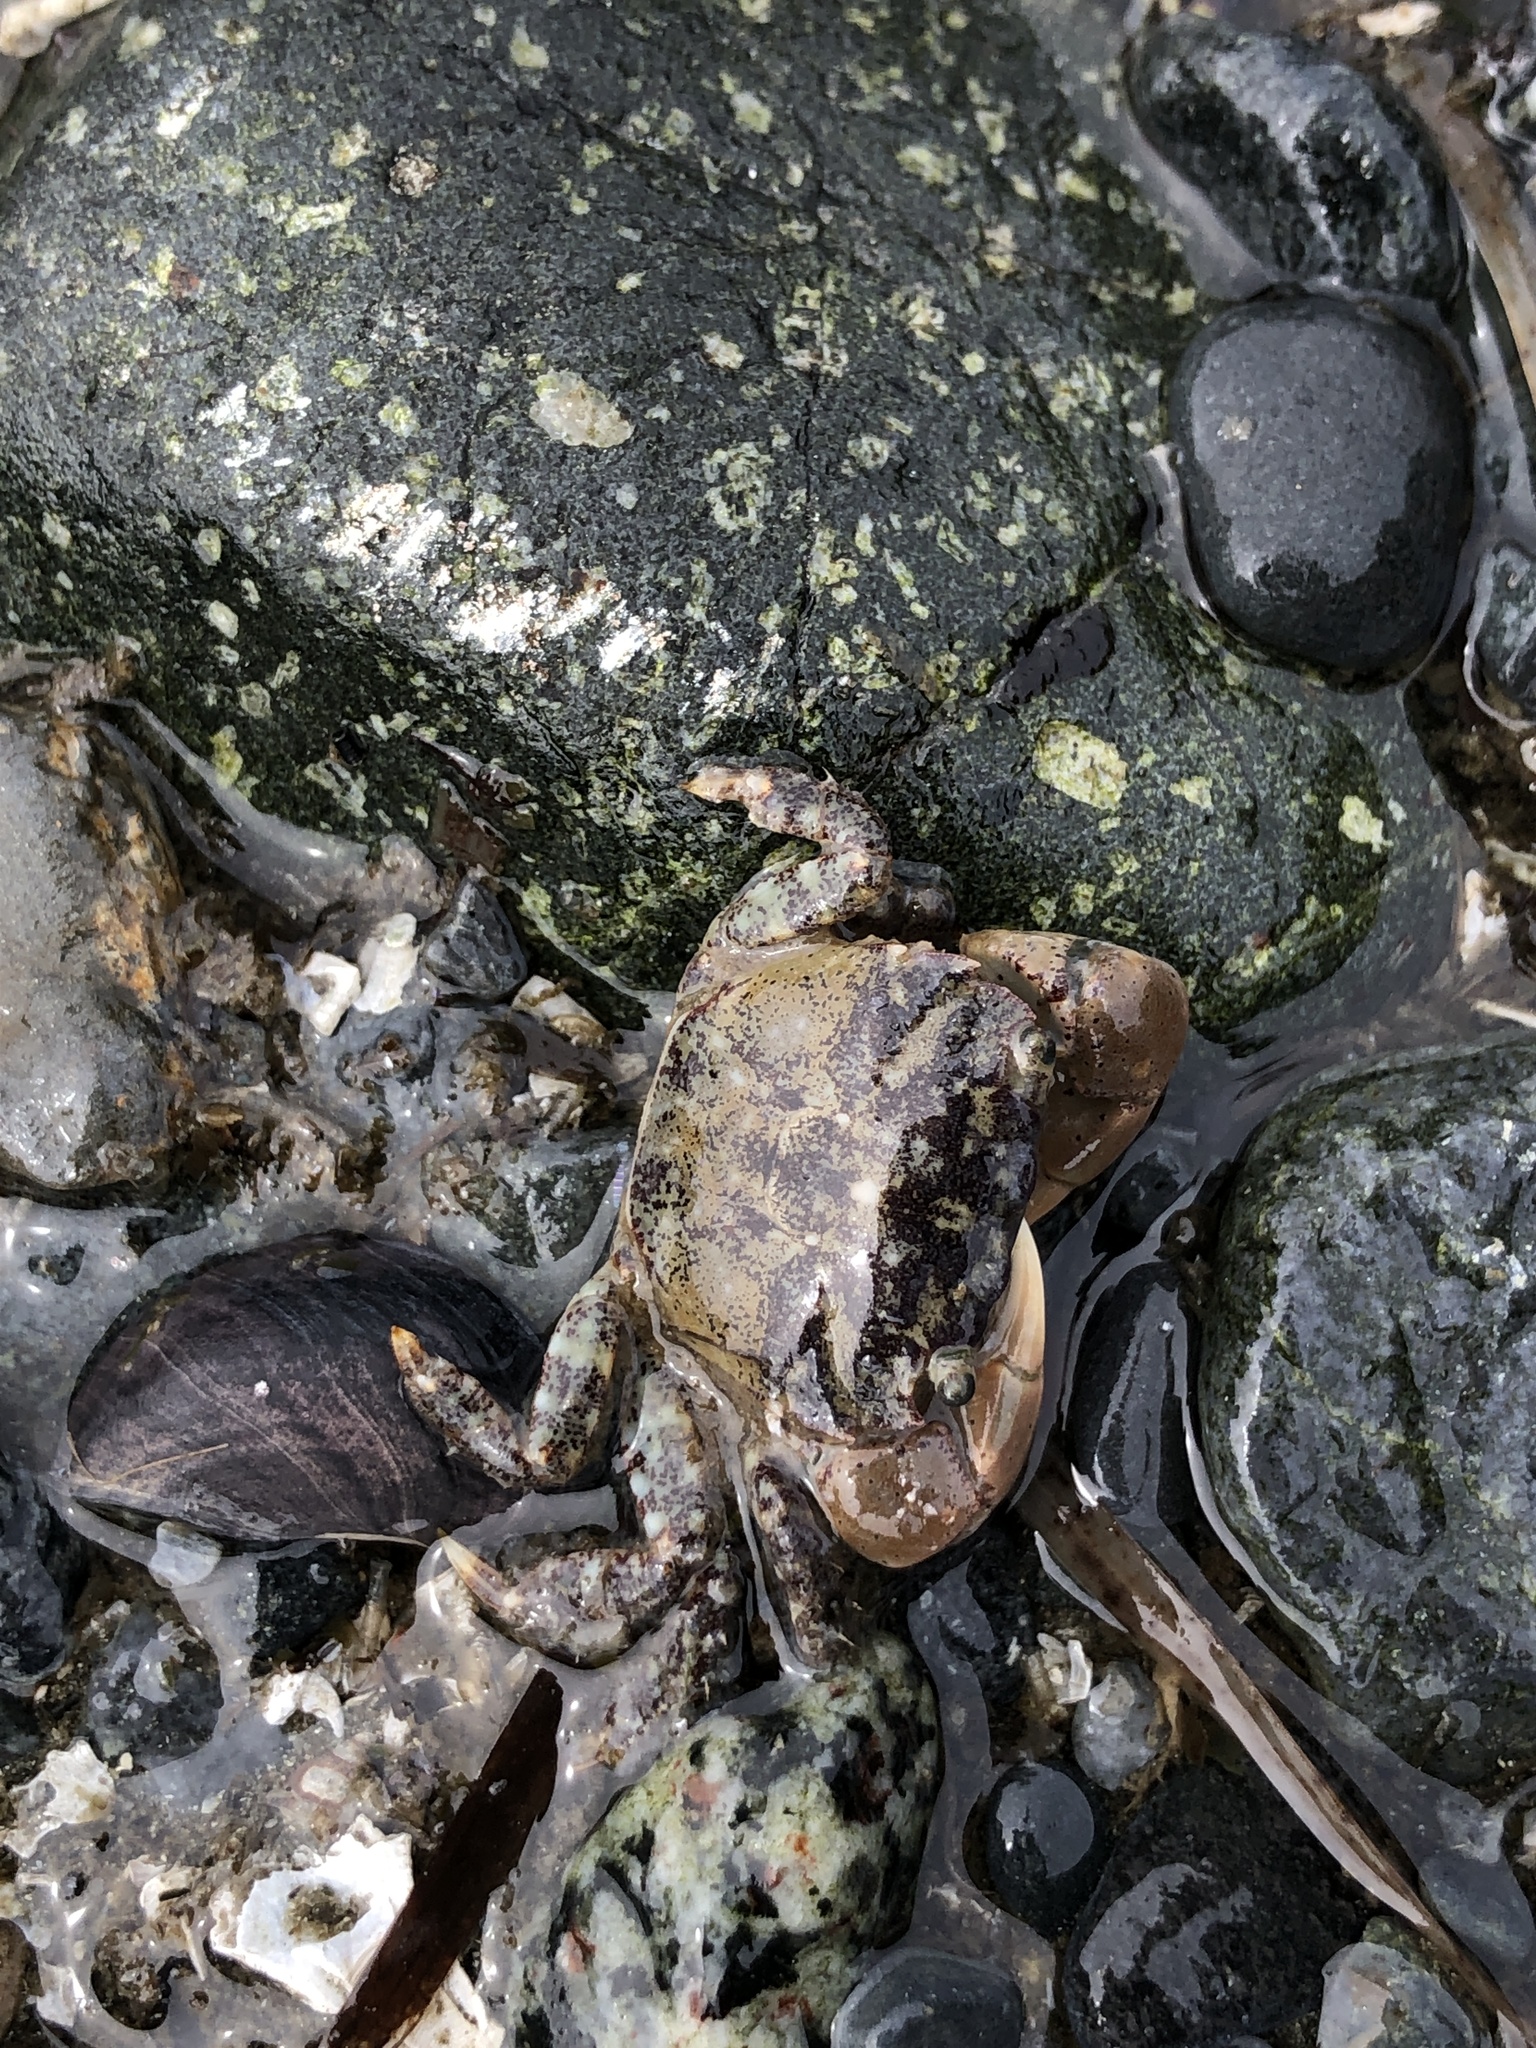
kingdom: Animalia
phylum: Arthropoda
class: Malacostraca
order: Decapoda
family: Varunidae
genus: Hemigrapsus
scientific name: Hemigrapsus oregonensis
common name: Yellow shore crab
